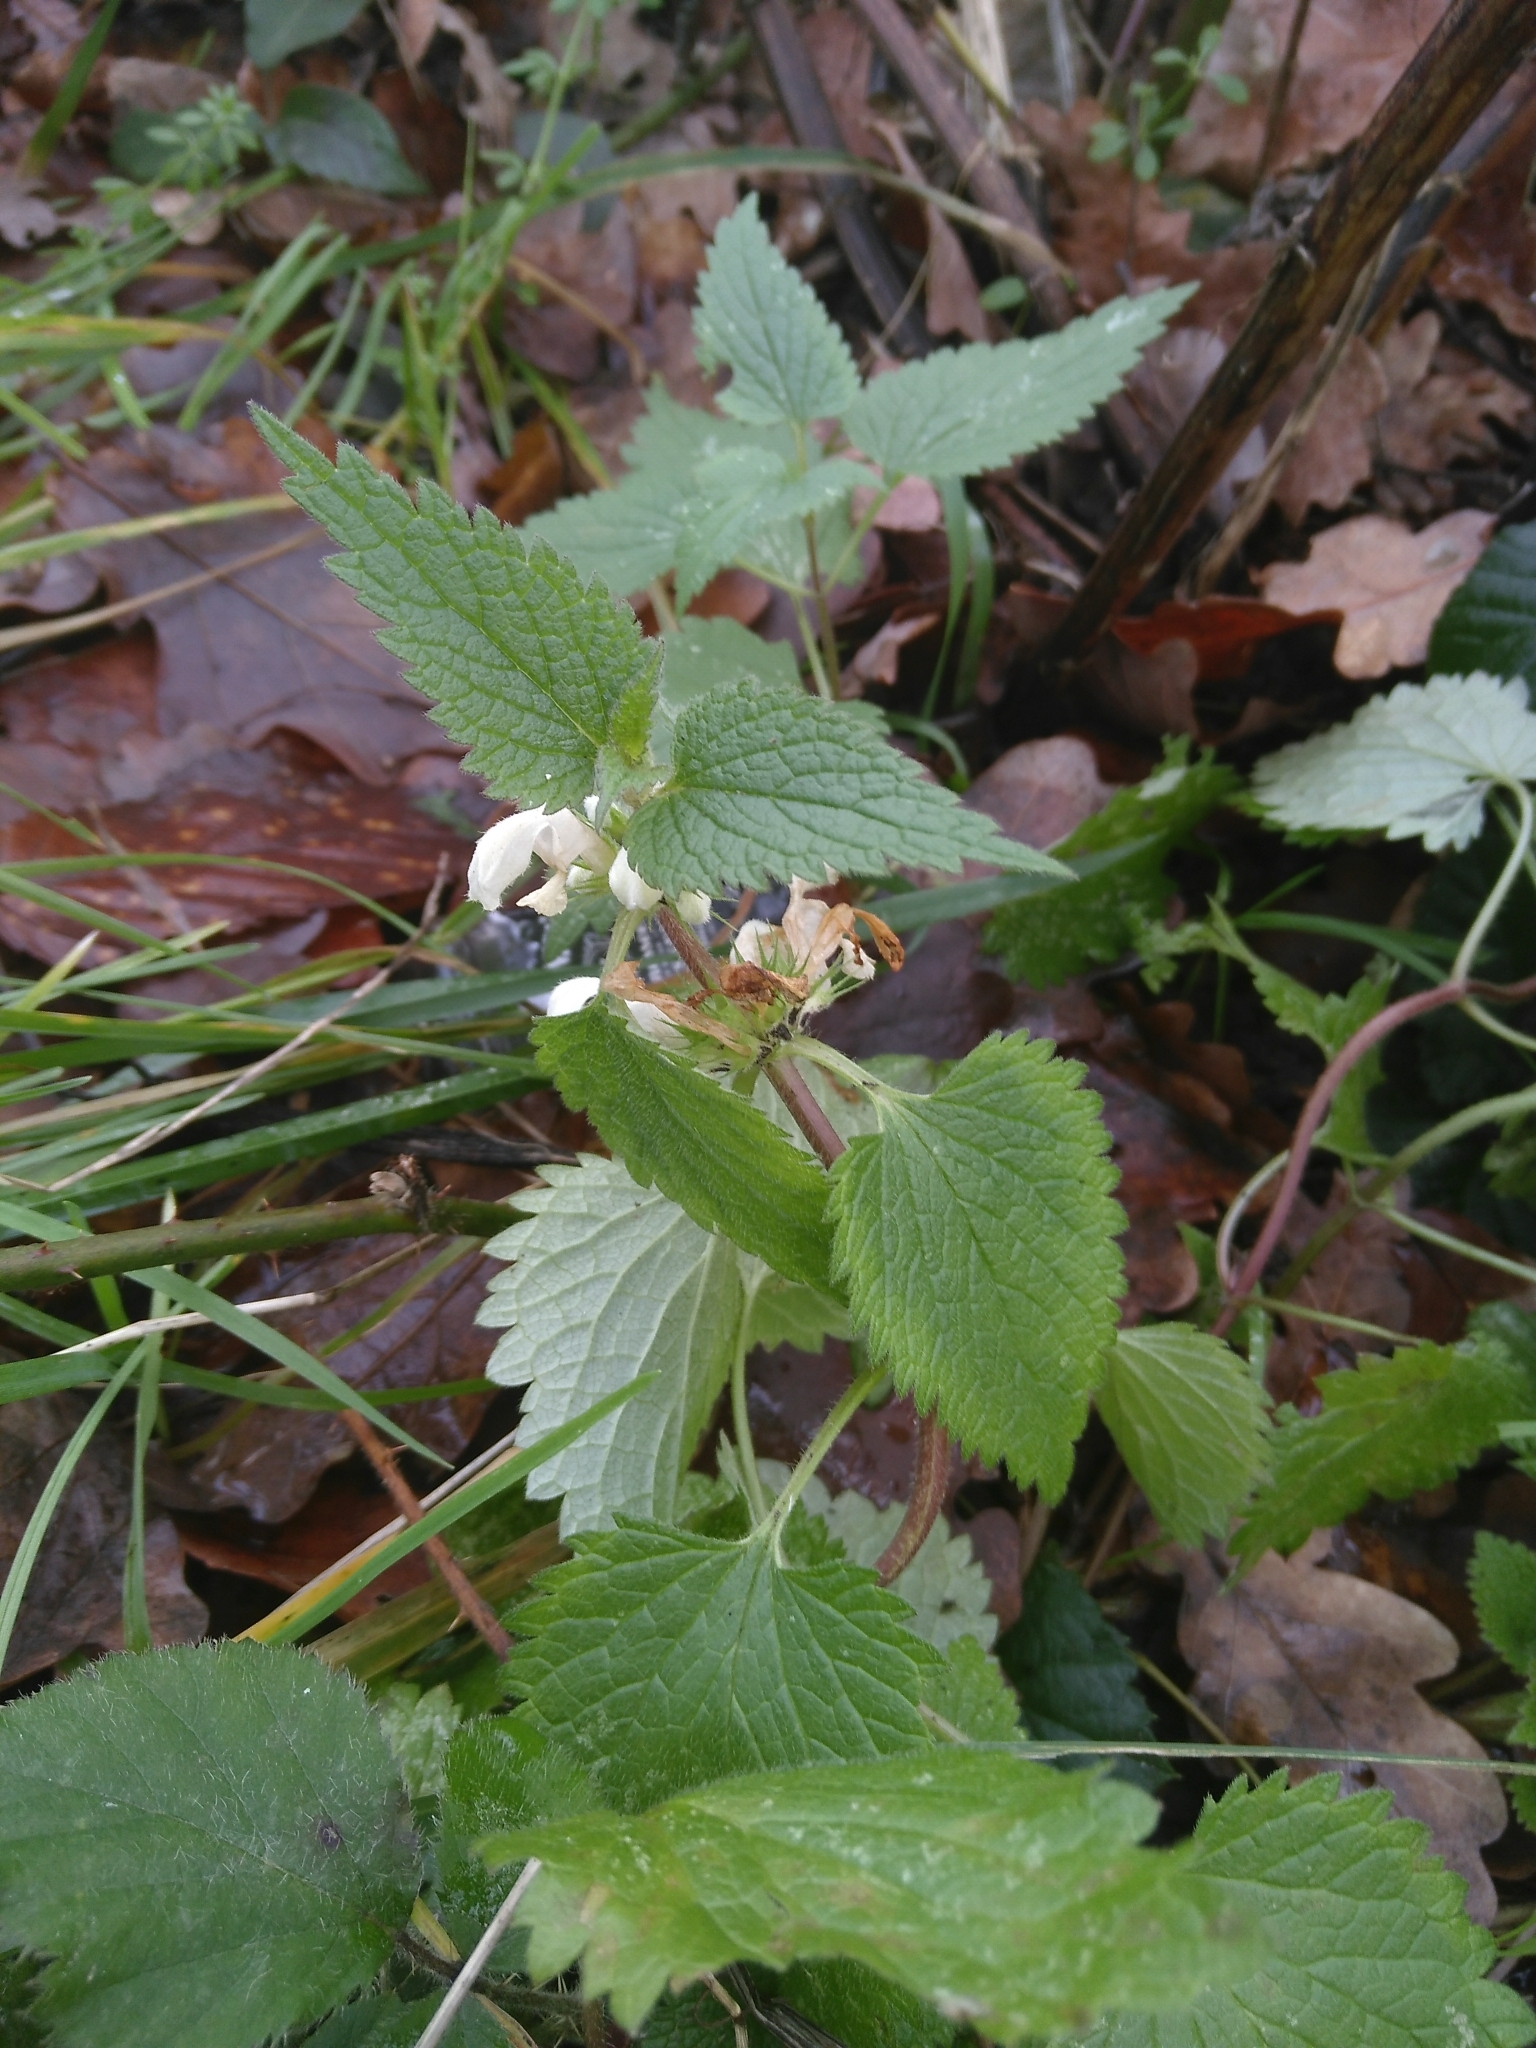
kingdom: Plantae
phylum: Tracheophyta
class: Magnoliopsida
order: Lamiales
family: Lamiaceae
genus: Lamium
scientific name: Lamium album
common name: White dead-nettle
